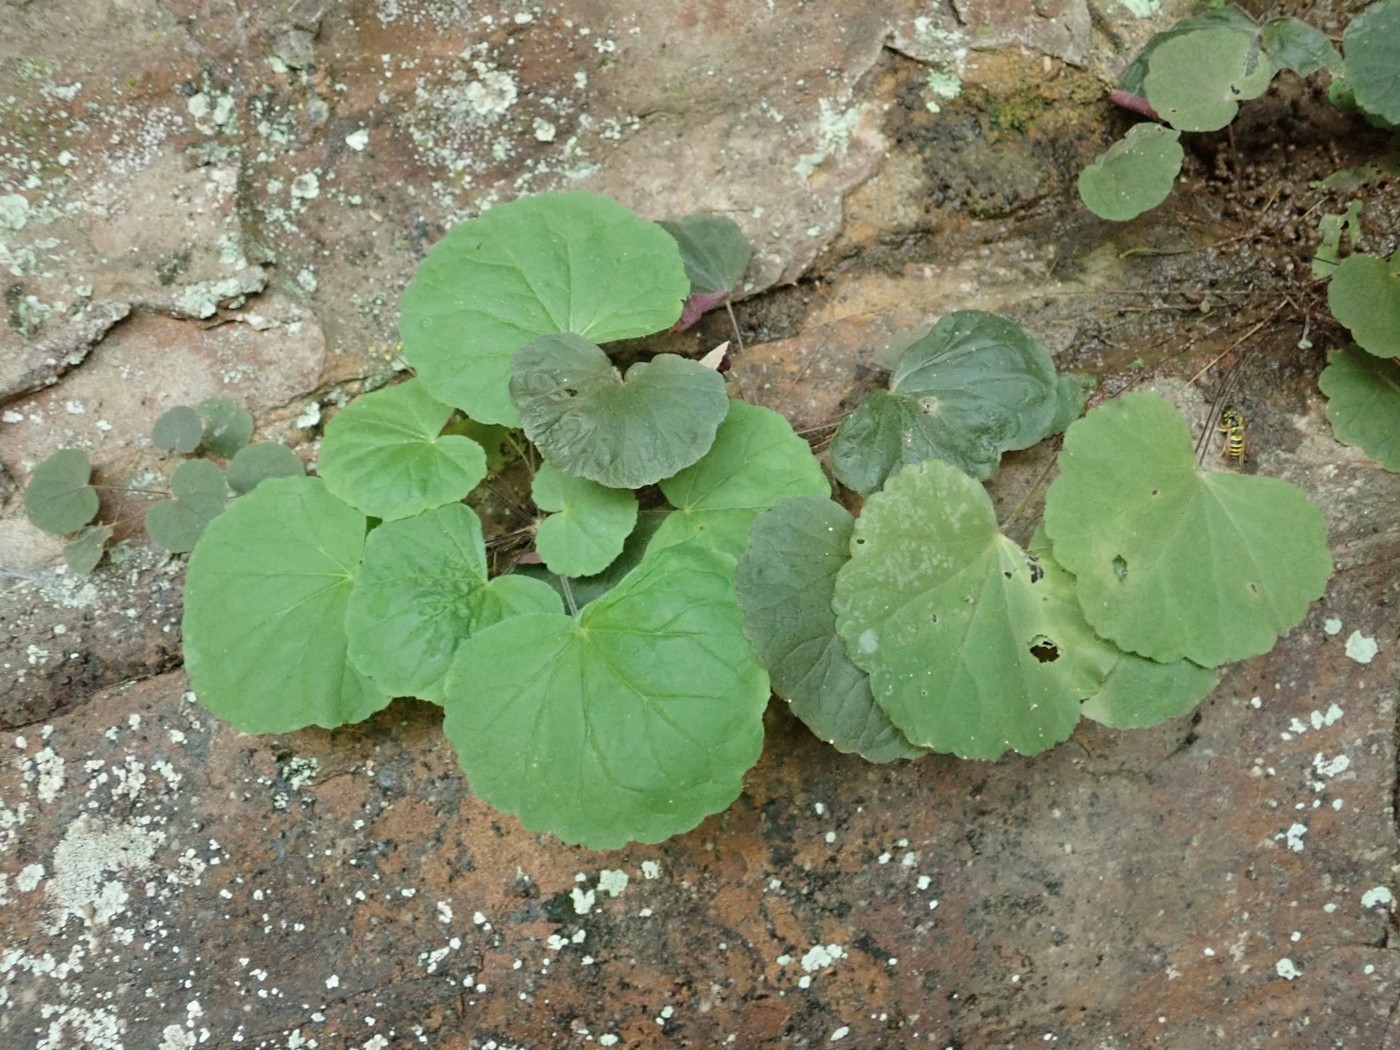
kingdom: Plantae
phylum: Tracheophyta
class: Magnoliopsida
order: Saxifragales
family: Saxifragaceae
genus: Heuchera
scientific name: Heuchera parviflora
